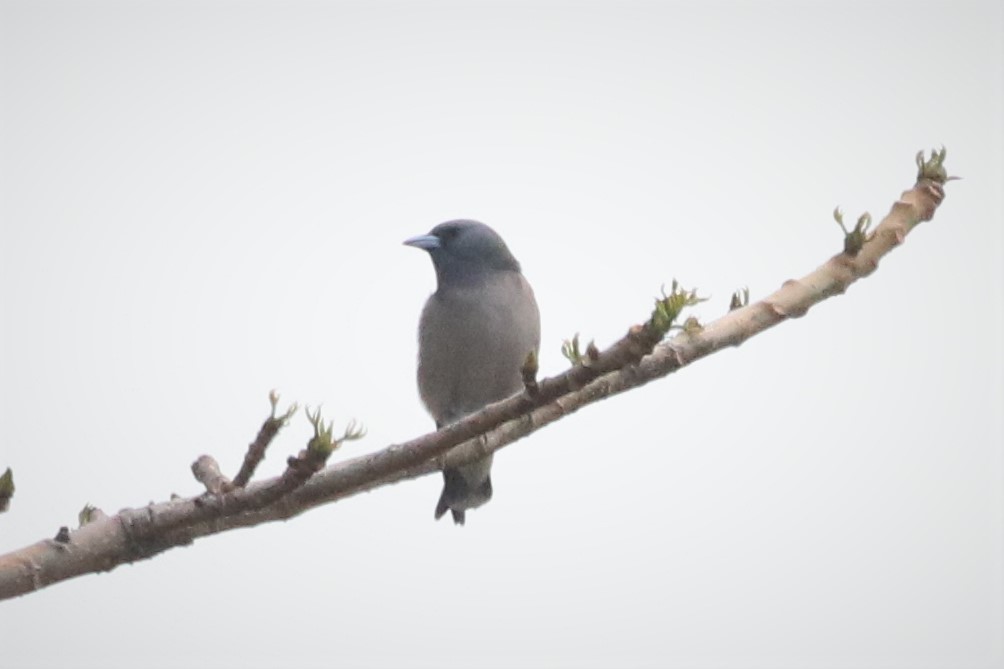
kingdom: Animalia
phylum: Chordata
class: Aves
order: Passeriformes
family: Artamidae
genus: Artamus
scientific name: Artamus fuscus
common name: Ashy woodswallow
